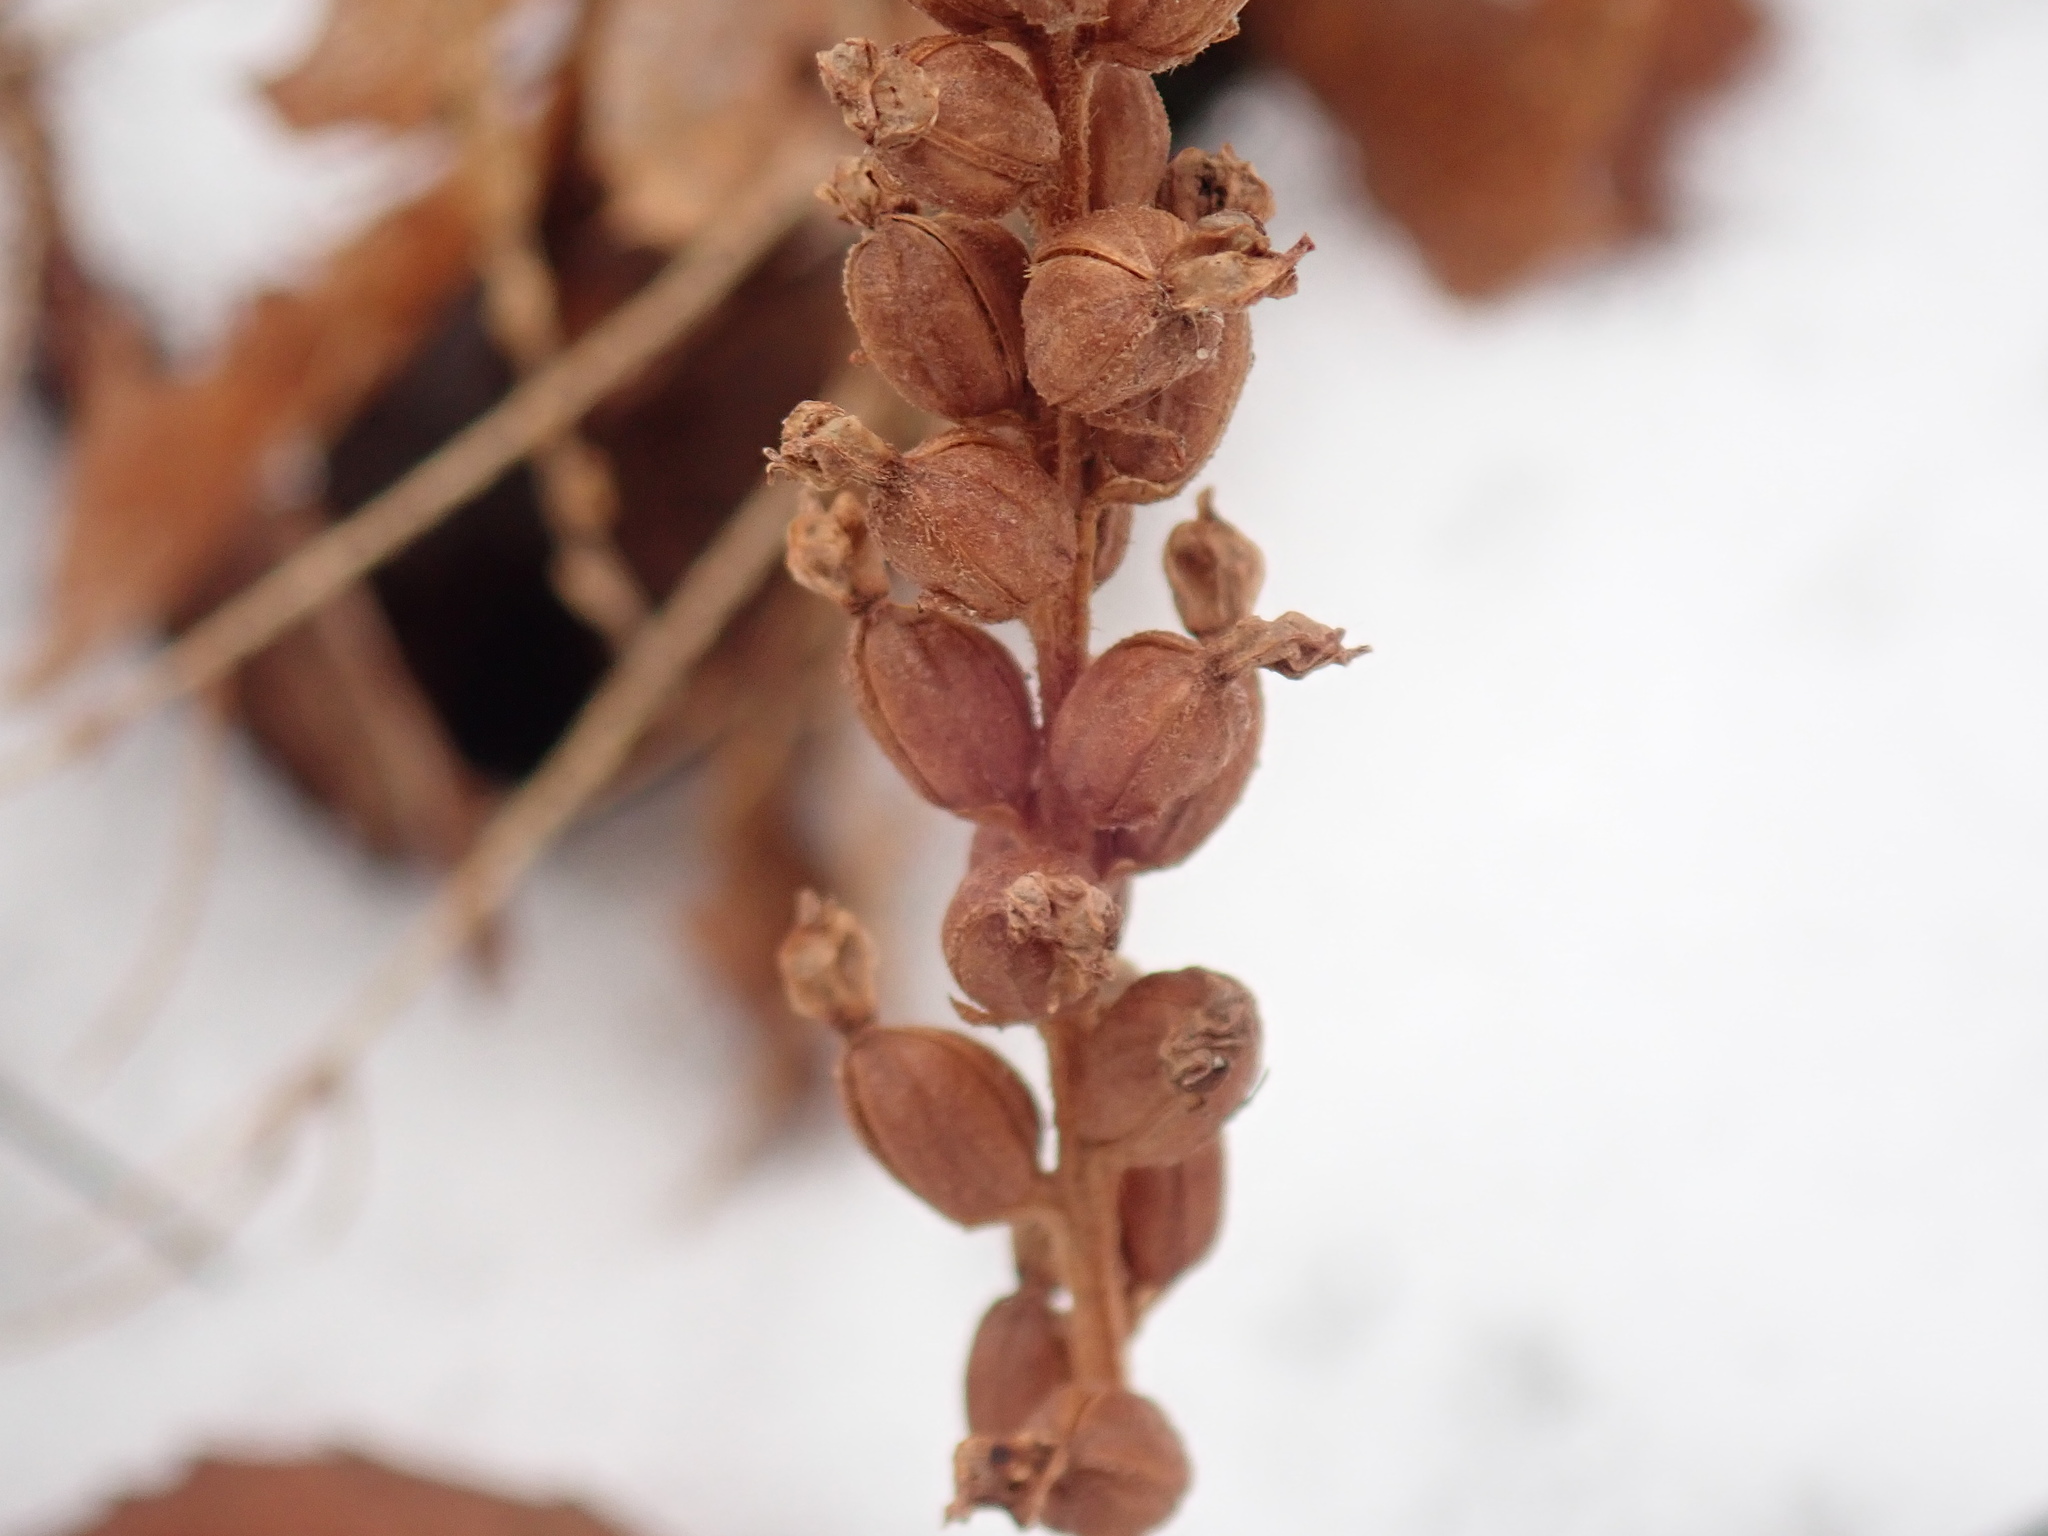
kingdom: Plantae
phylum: Tracheophyta
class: Liliopsida
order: Asparagales
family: Orchidaceae
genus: Goodyera
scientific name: Goodyera pubescens
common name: Downy rattlesnake-plantain
